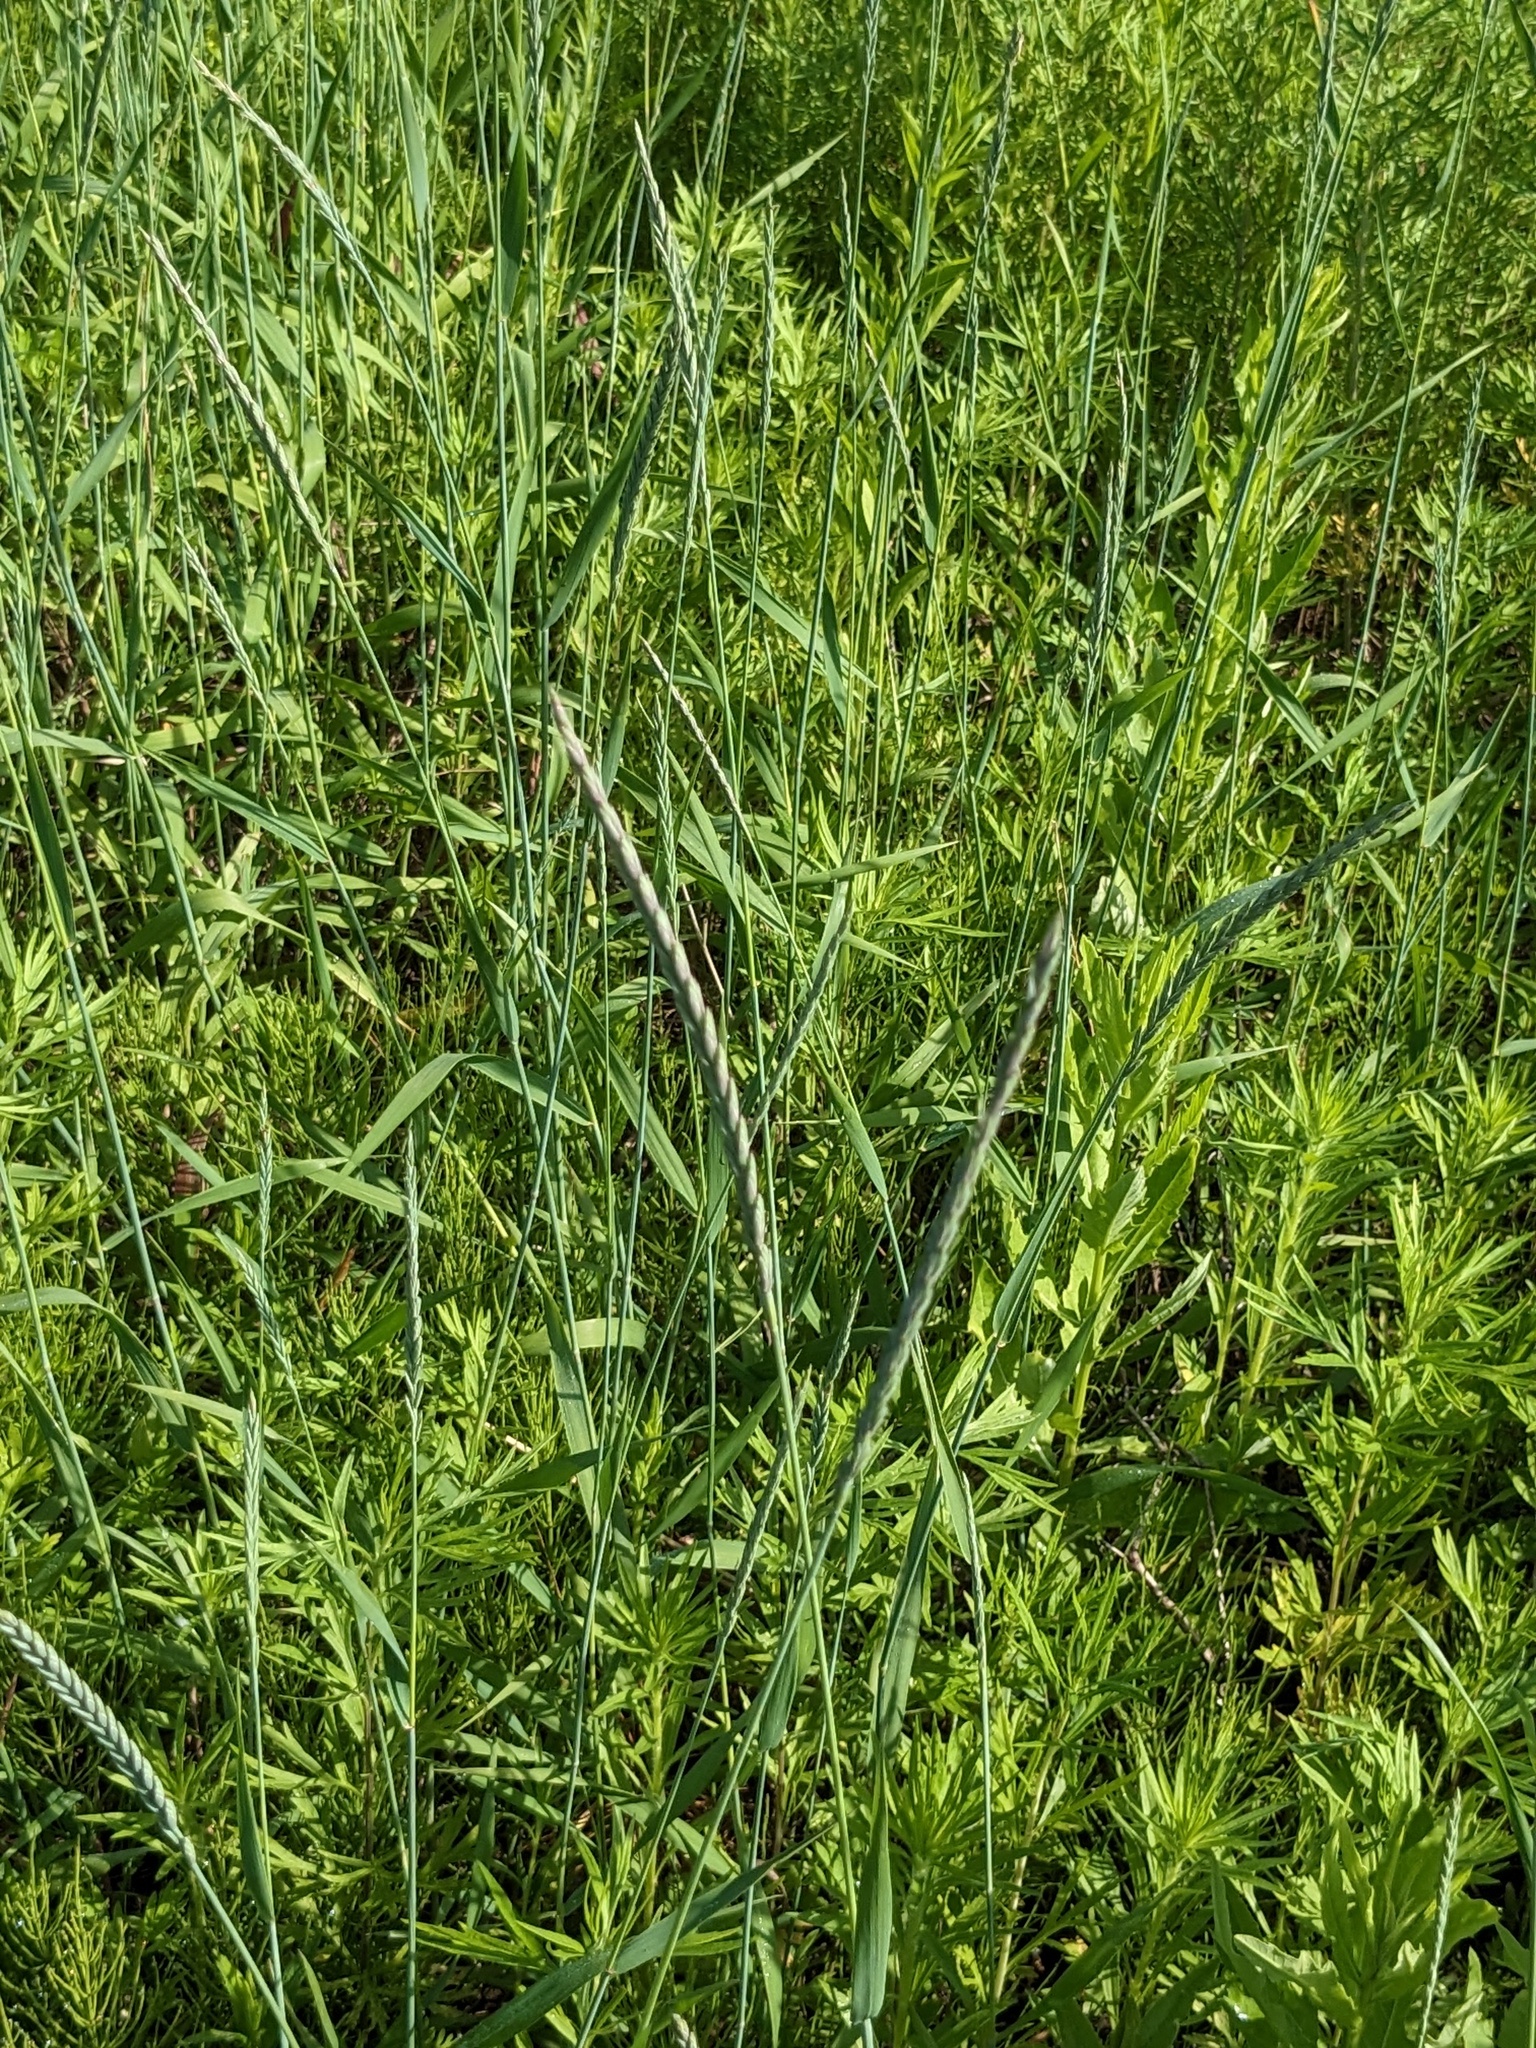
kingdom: Plantae
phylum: Tracheophyta
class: Liliopsida
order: Poales
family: Poaceae
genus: Elymus
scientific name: Elymus repens
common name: Quackgrass
